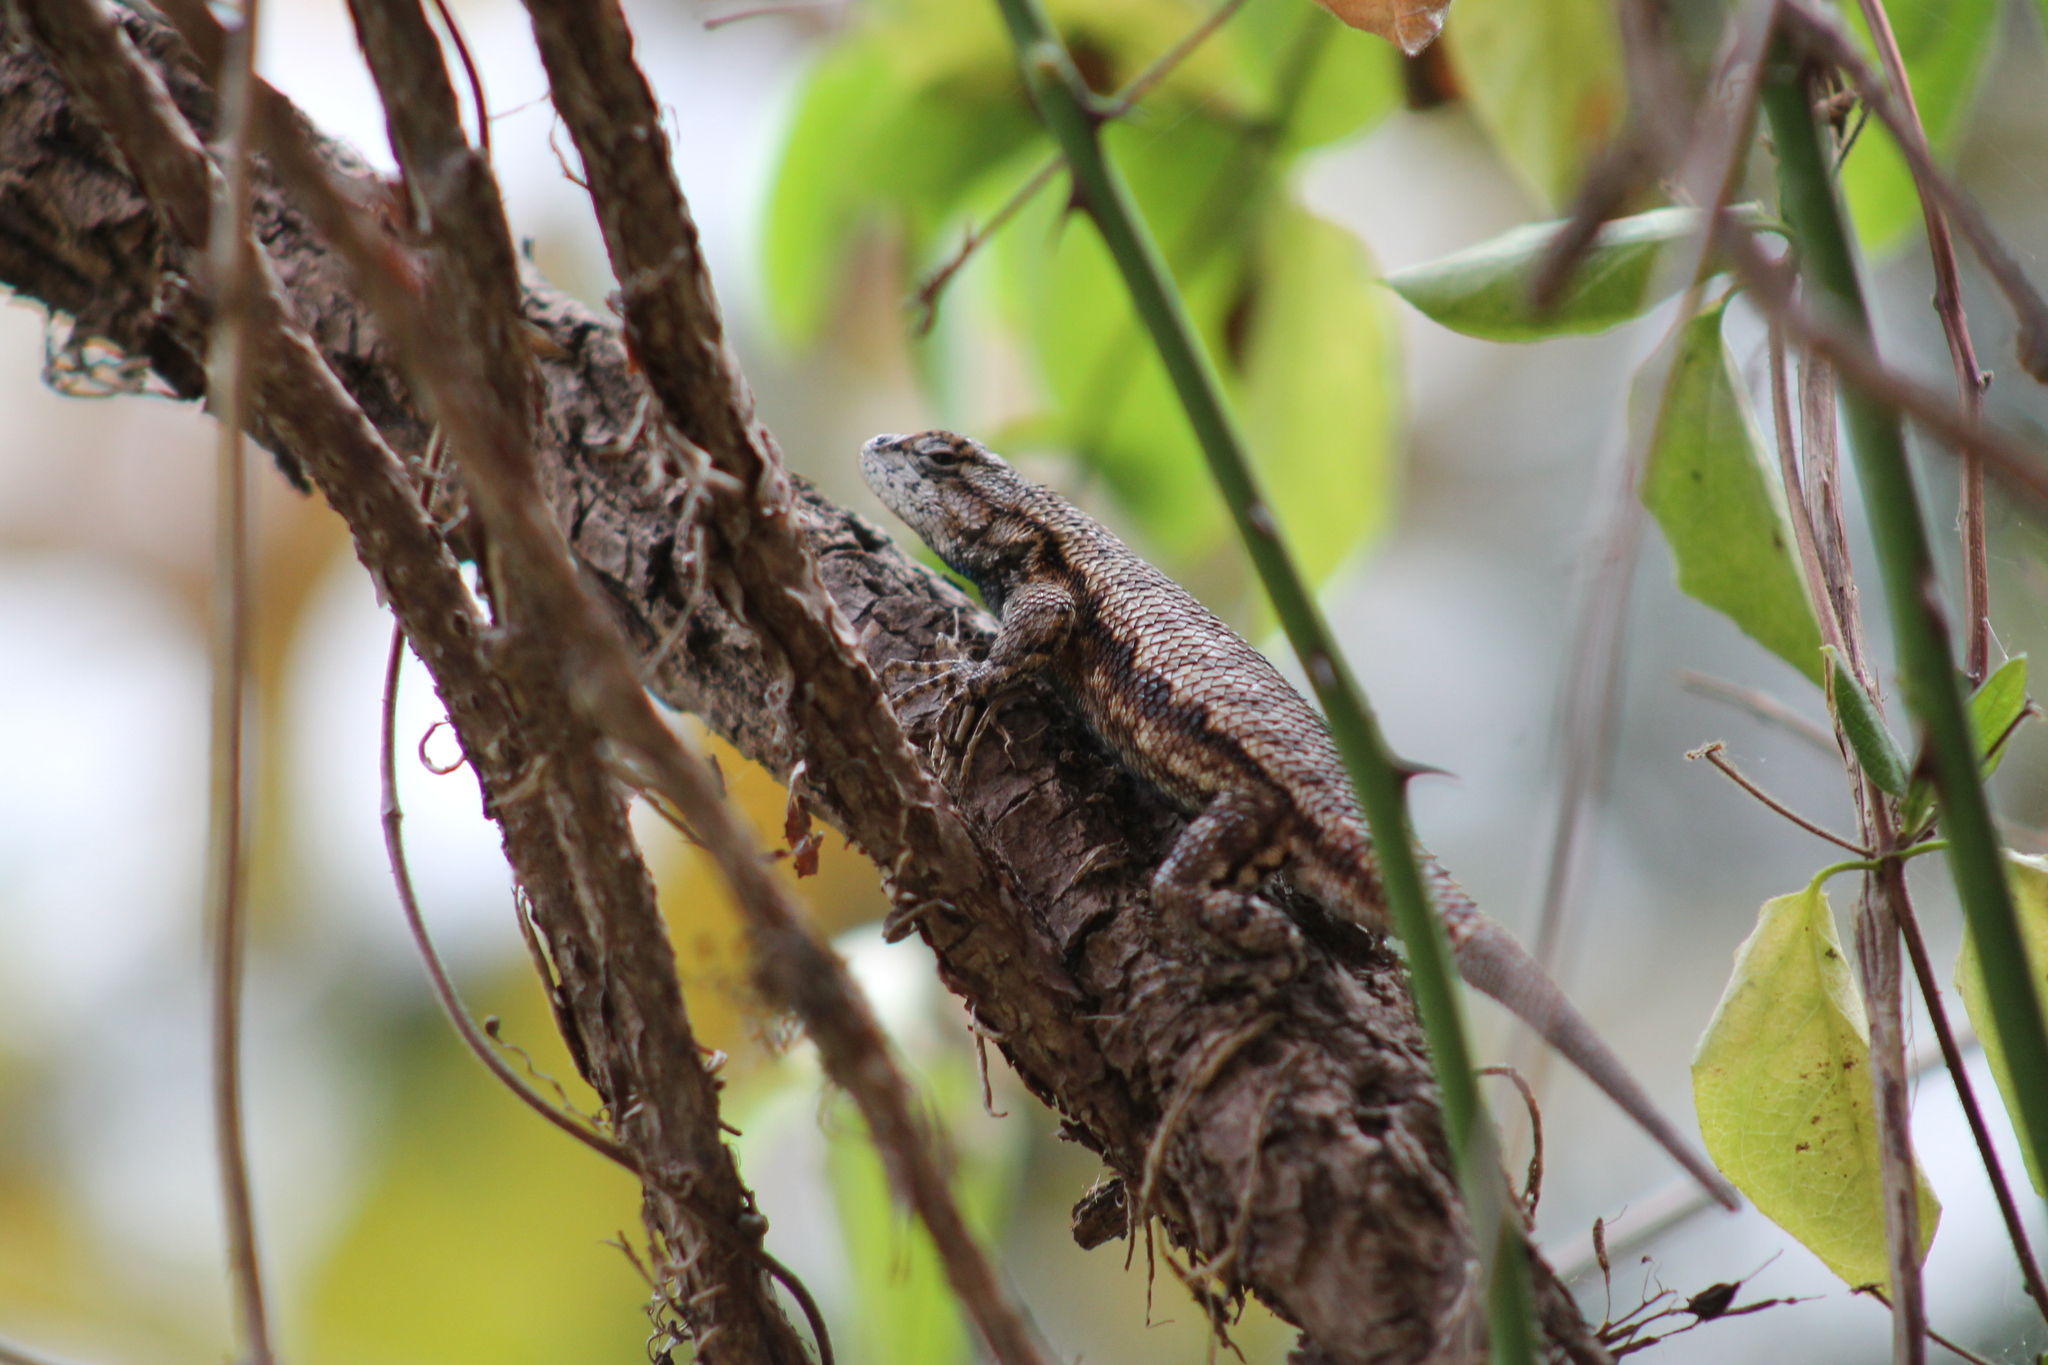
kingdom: Animalia
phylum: Chordata
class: Squamata
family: Phrynosomatidae
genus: Sceloporus
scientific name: Sceloporus undulatus
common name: Eastern fence lizard
